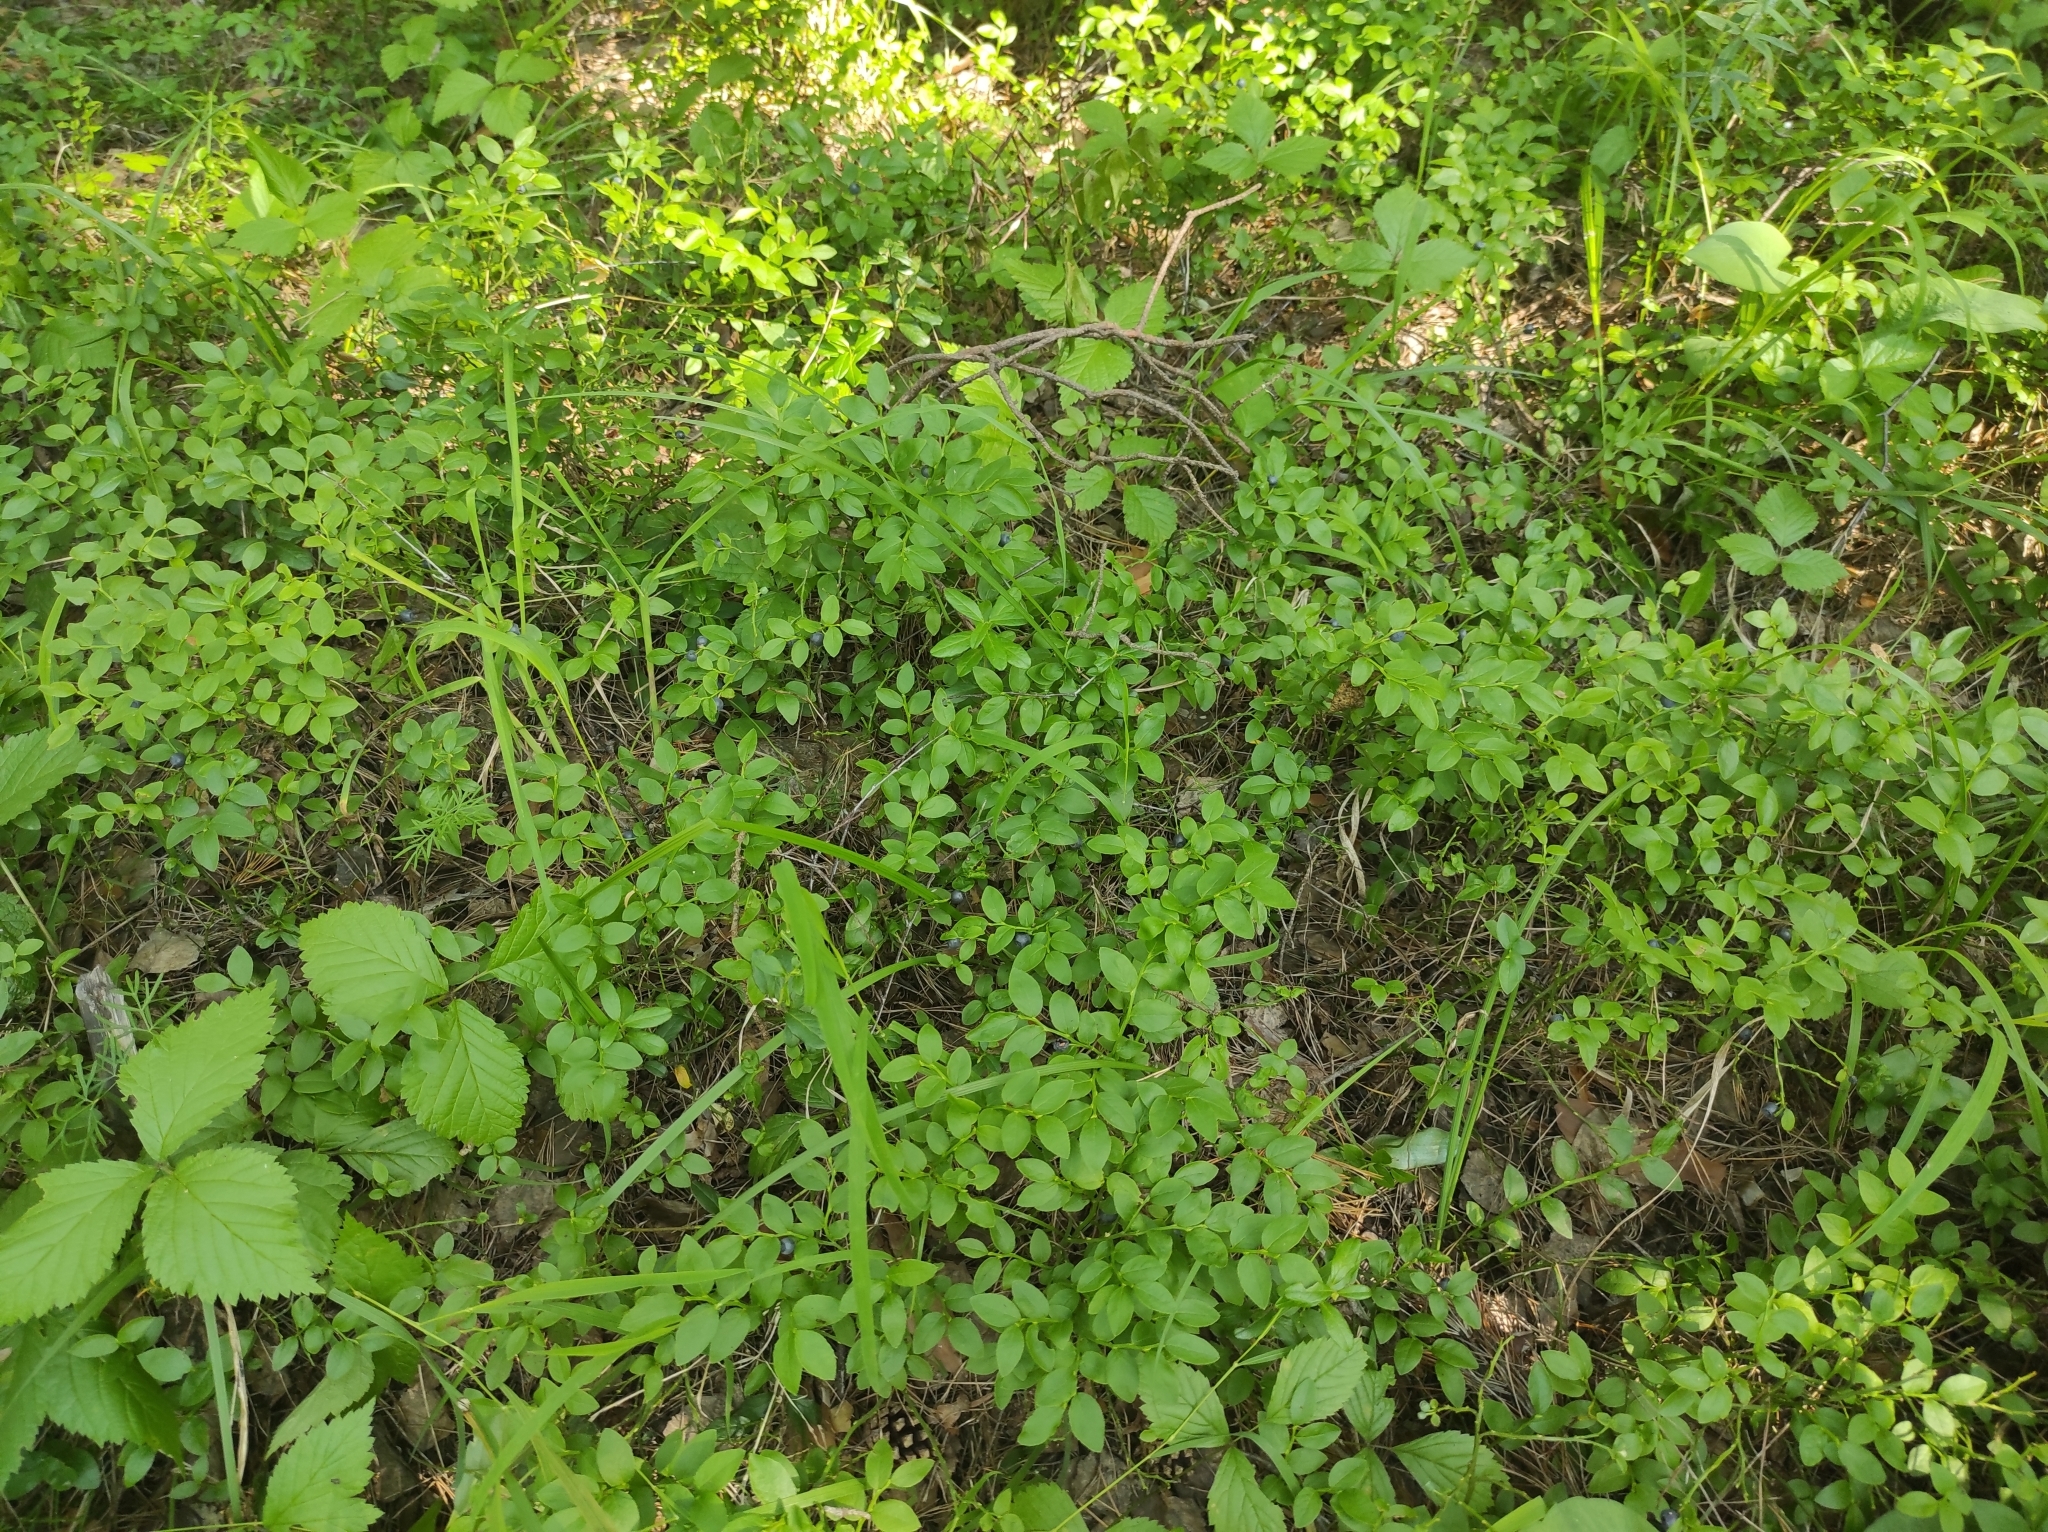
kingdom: Plantae
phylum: Tracheophyta
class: Magnoliopsida
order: Ericales
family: Ericaceae
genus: Vaccinium
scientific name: Vaccinium myrtillus
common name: Bilberry
